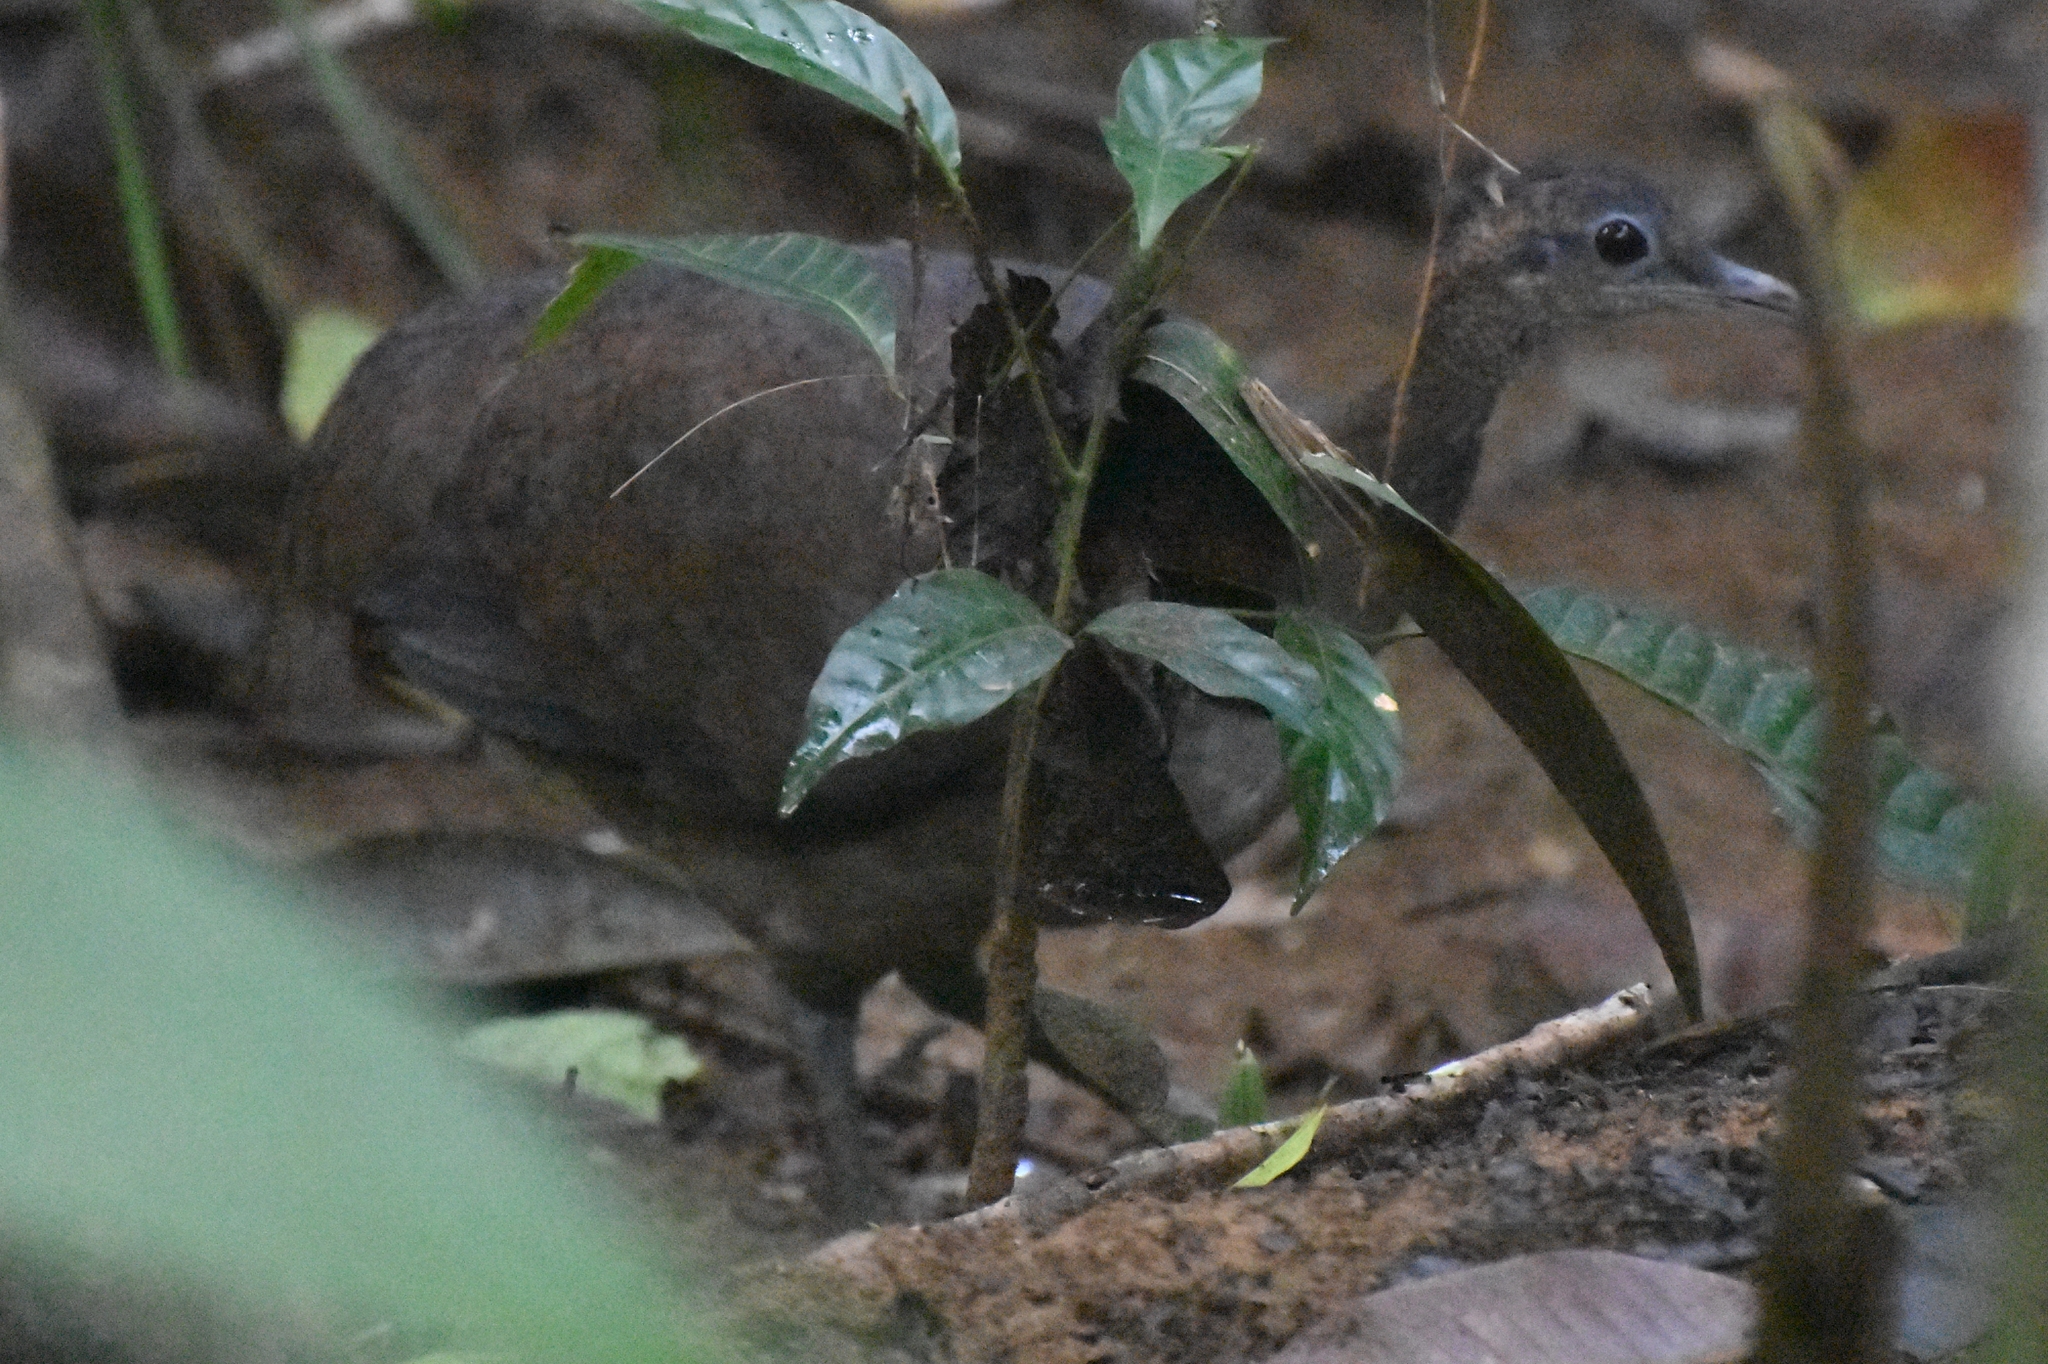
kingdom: Animalia
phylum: Chordata
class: Aves
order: Tinamiformes
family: Tinamidae
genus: Tinamus
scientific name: Tinamus major
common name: Great tinamou
